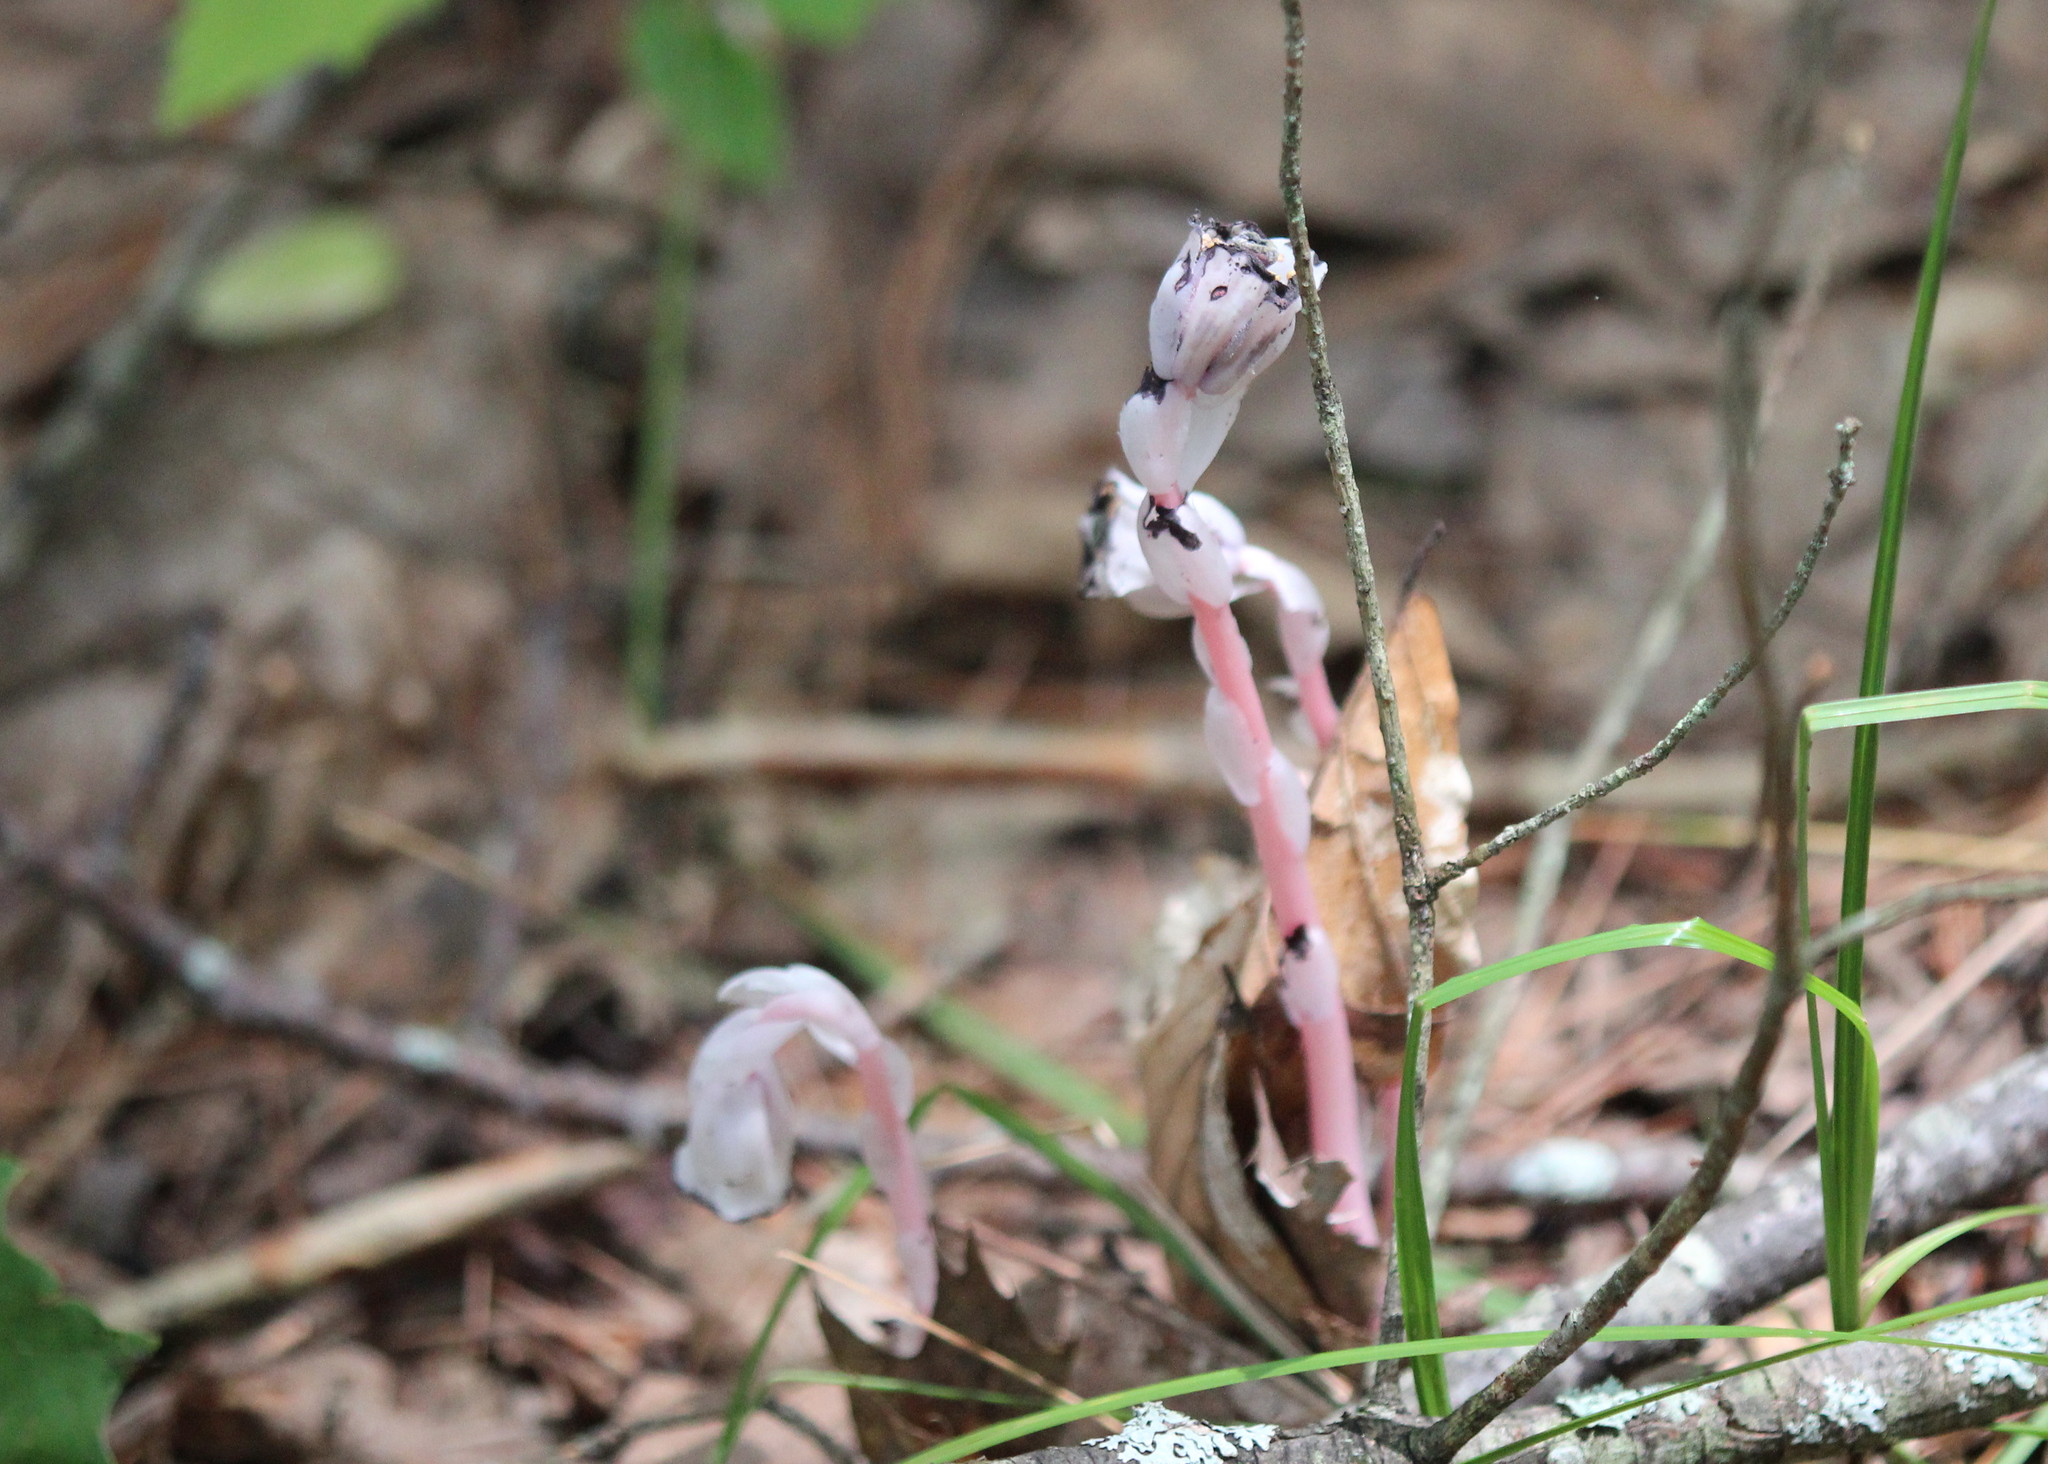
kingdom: Plantae
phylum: Tracheophyta
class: Magnoliopsida
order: Ericales
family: Ericaceae
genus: Monotropa
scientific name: Monotropa uniflora
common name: Convulsion root
